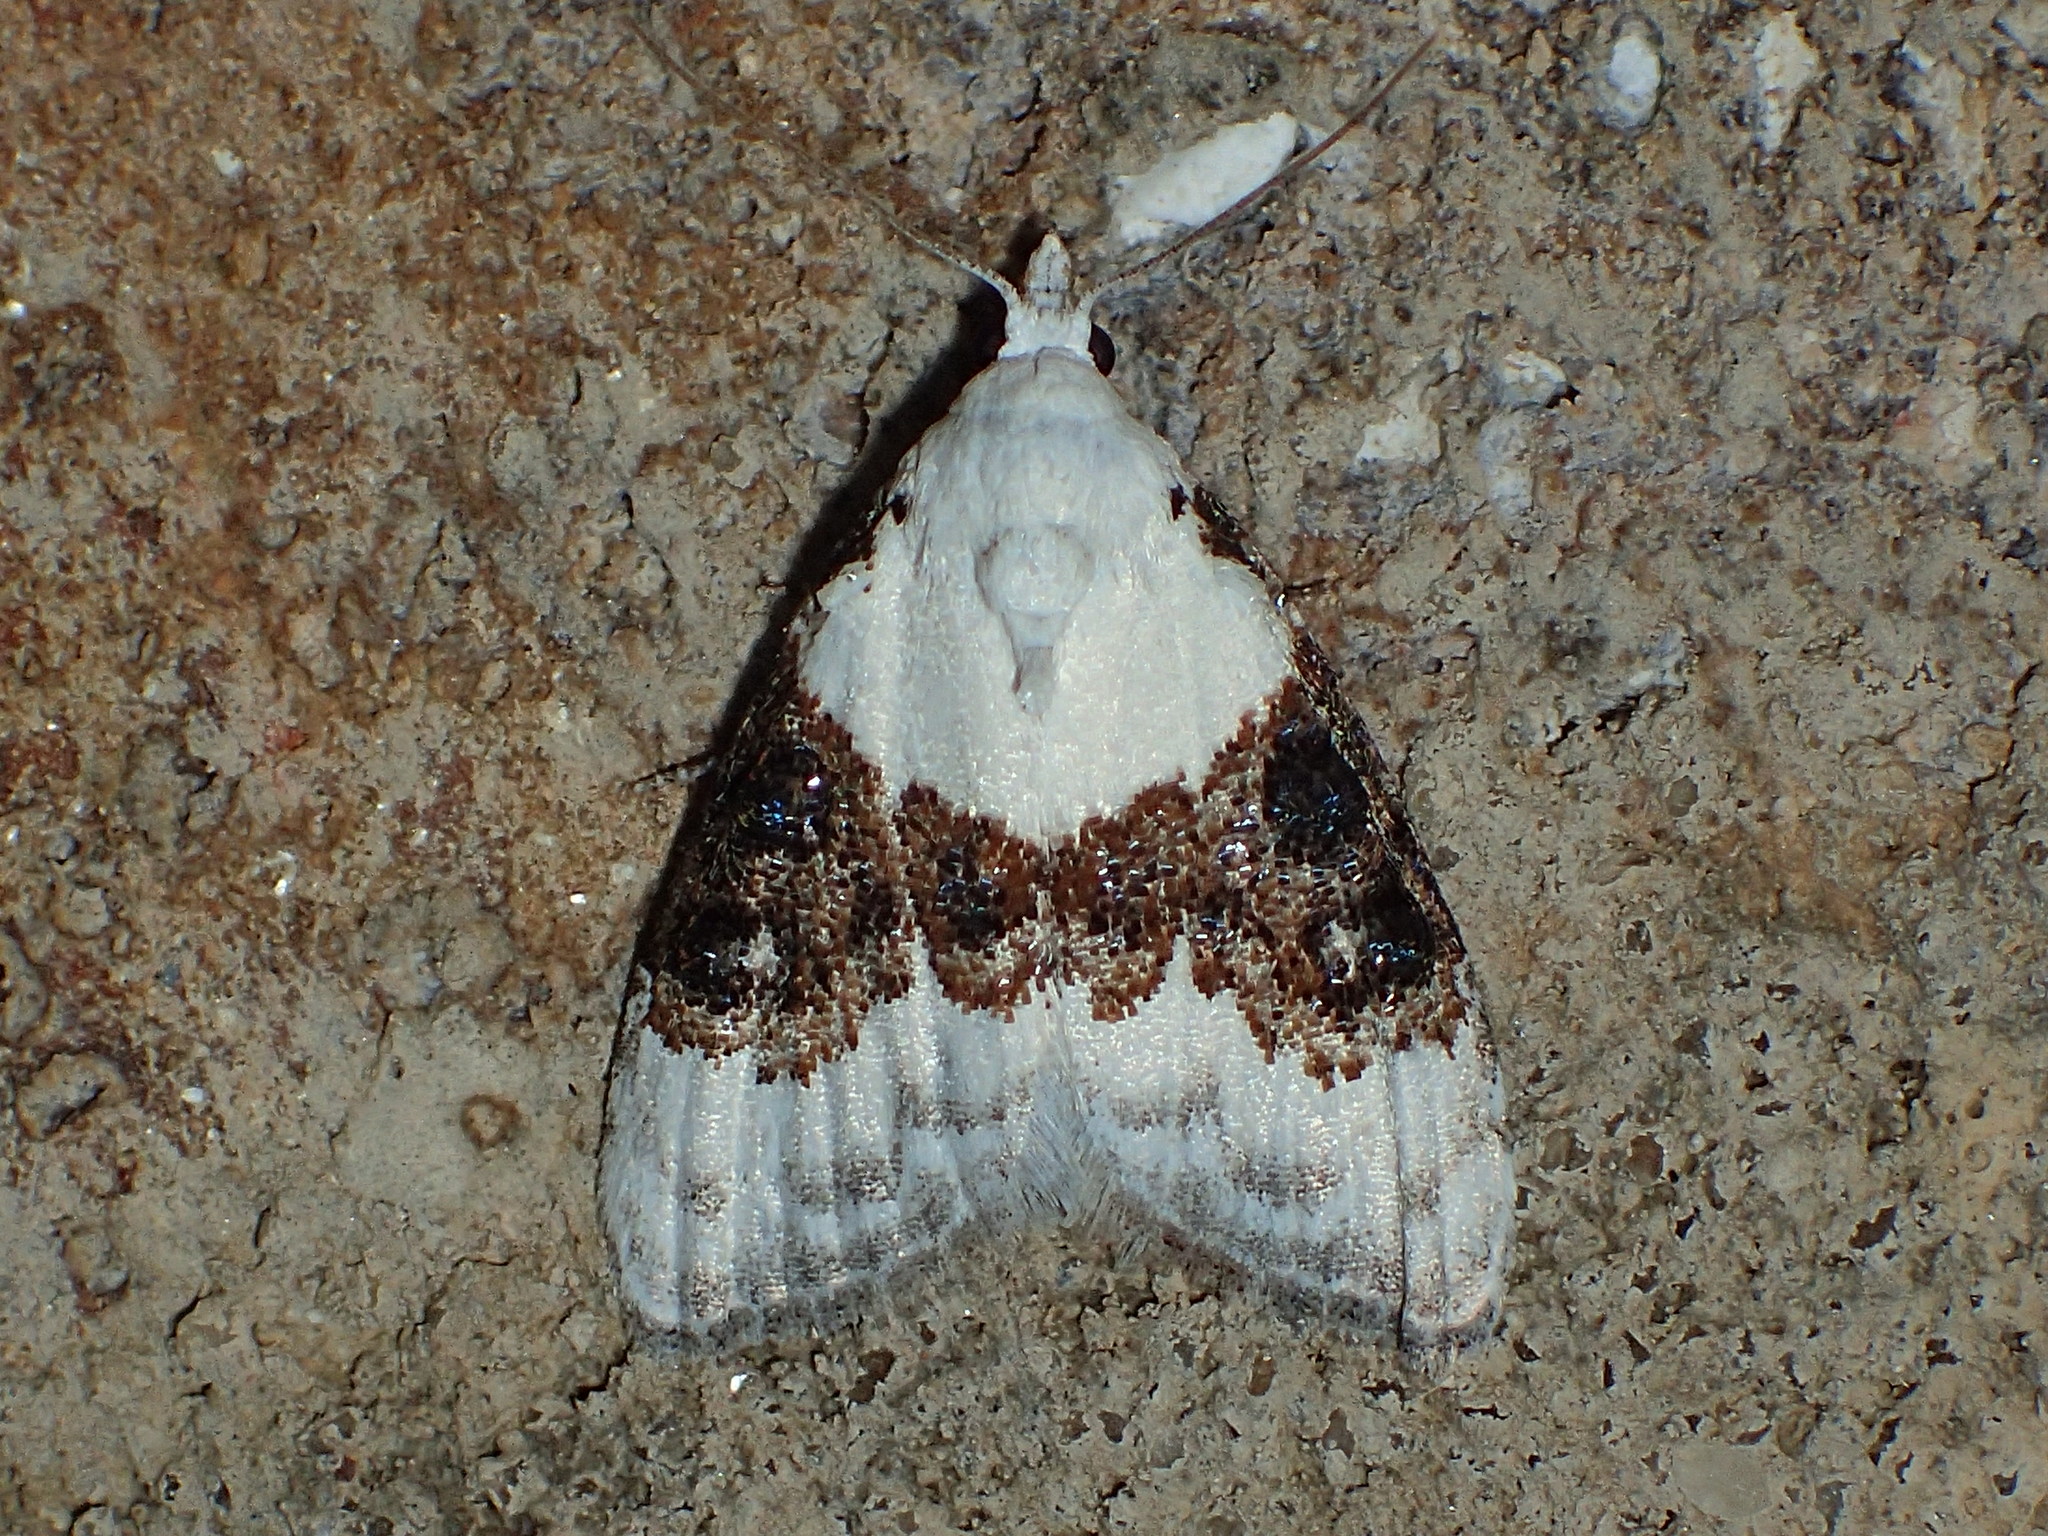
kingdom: Animalia
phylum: Arthropoda
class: Insecta
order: Lepidoptera
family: Nolidae
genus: Nola
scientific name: Nola pustulata
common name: Sharp-blotched nola moth
